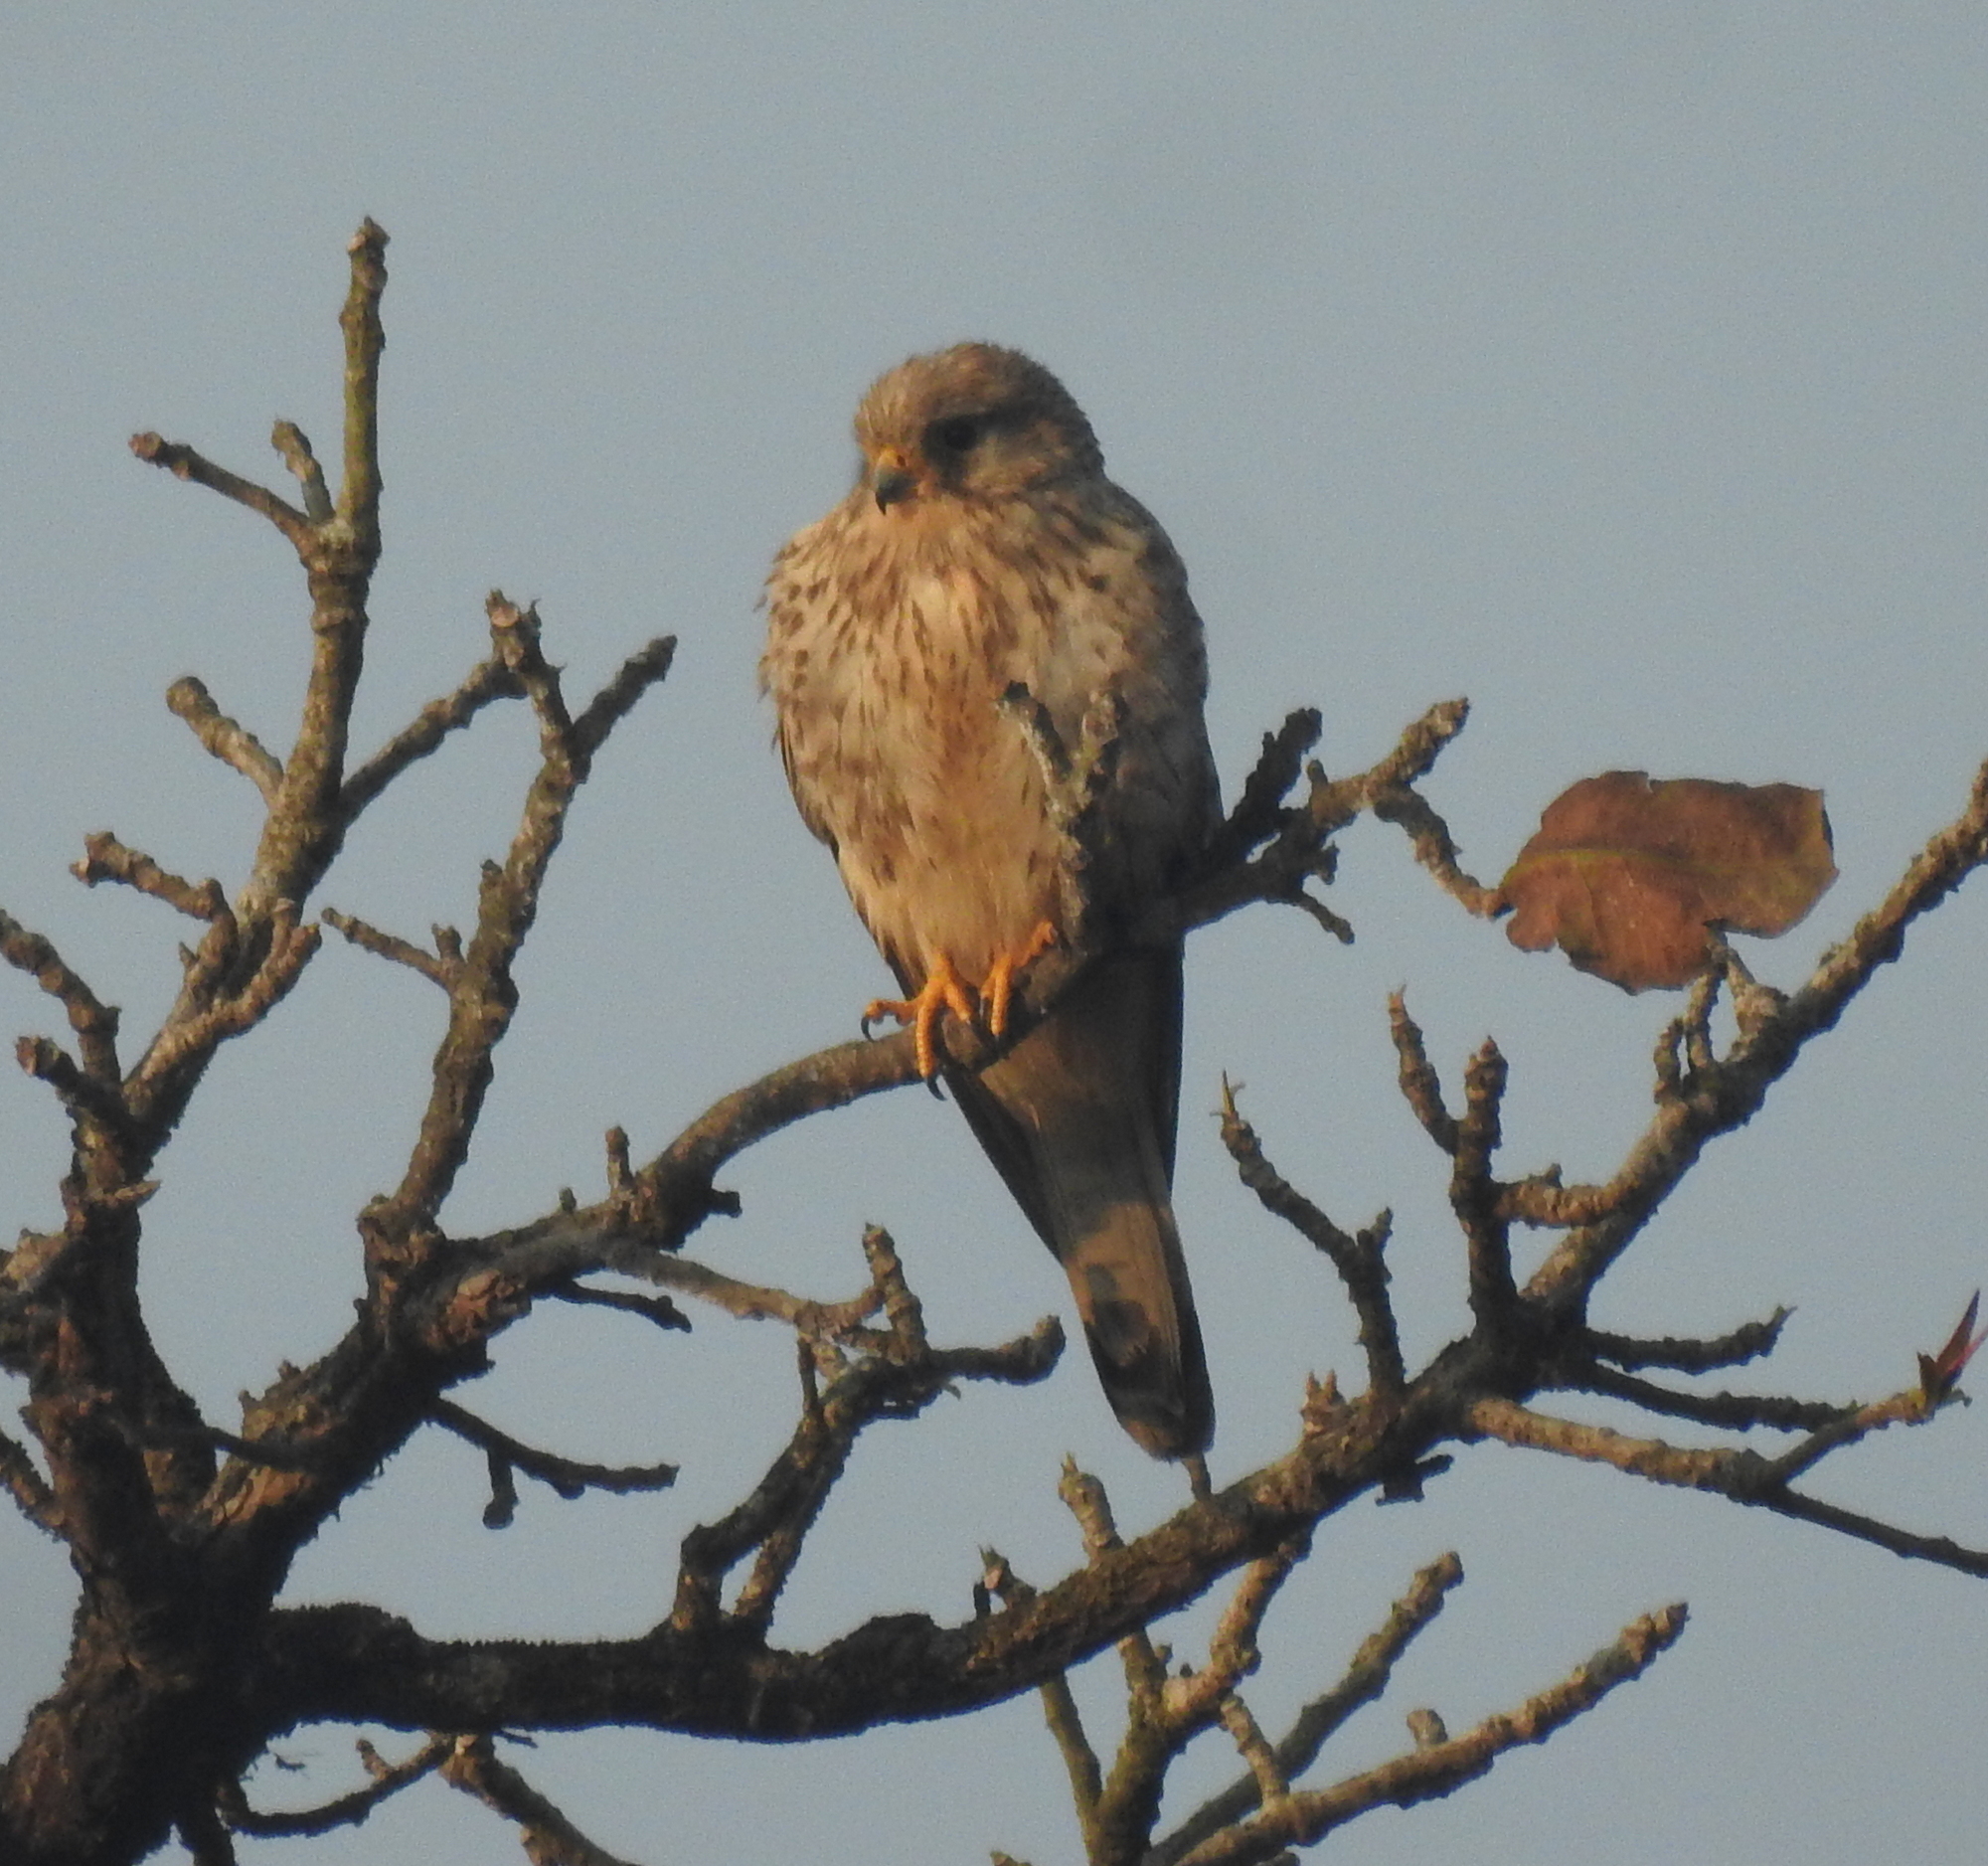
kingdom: Animalia
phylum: Chordata
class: Aves
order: Falconiformes
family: Falconidae
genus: Falco
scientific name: Falco tinnunculus
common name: Common kestrel
